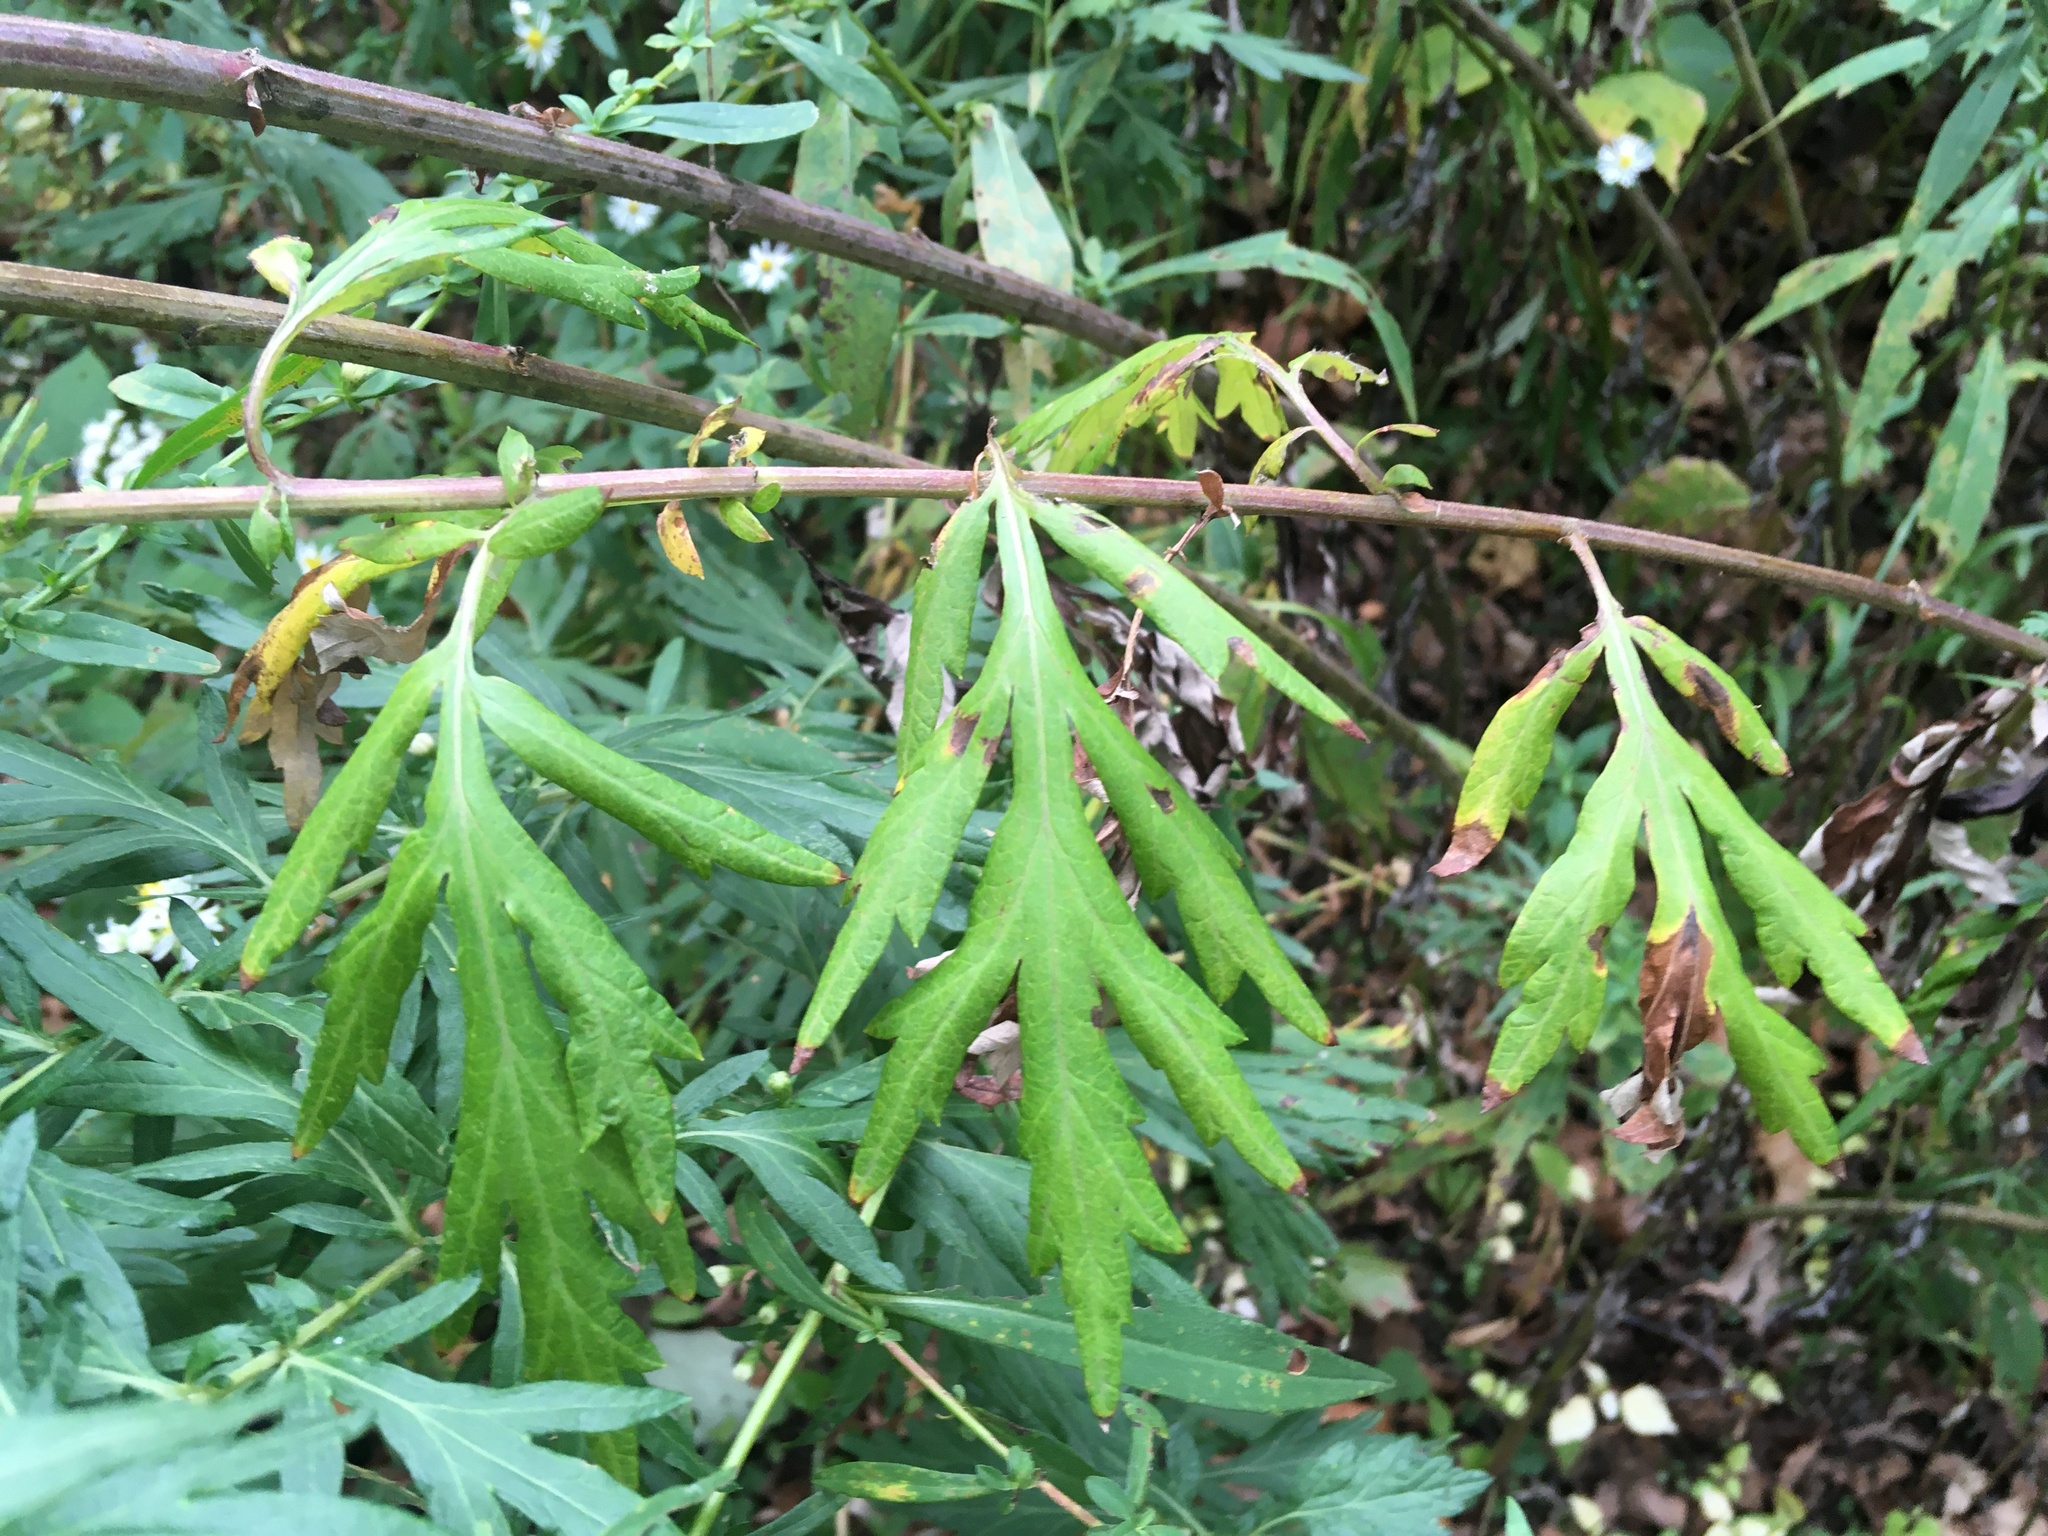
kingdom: Plantae
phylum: Tracheophyta
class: Magnoliopsida
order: Asterales
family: Asteraceae
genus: Artemisia
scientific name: Artemisia vulgaris
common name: Mugwort
